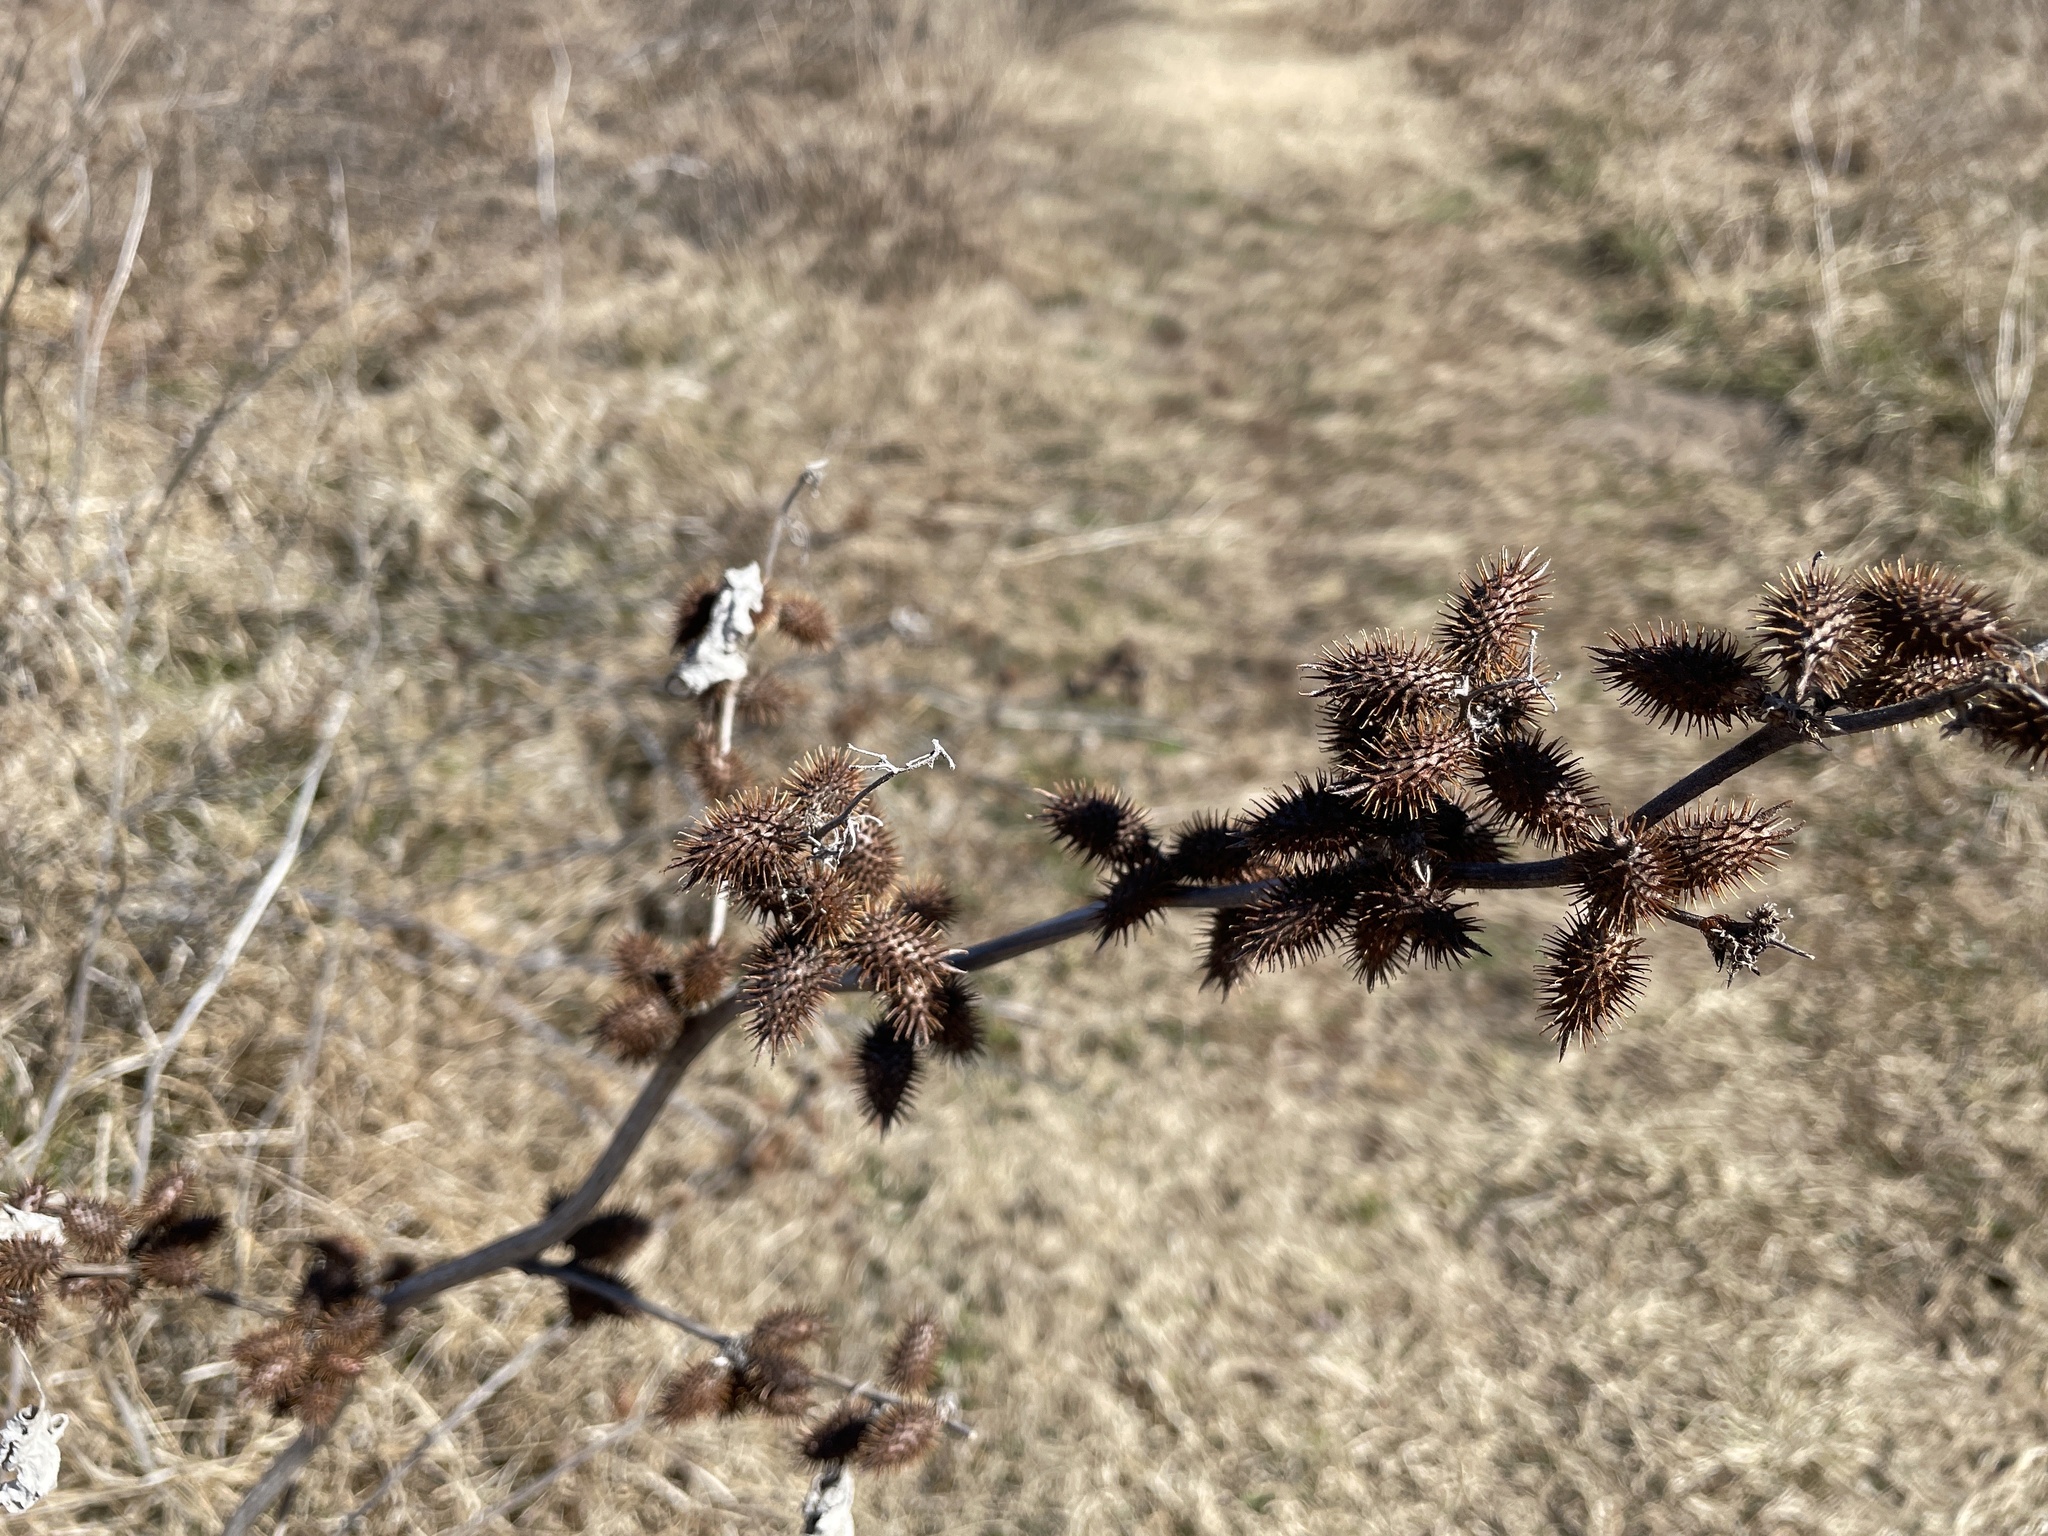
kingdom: Plantae
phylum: Tracheophyta
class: Magnoliopsida
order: Asterales
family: Asteraceae
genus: Xanthium
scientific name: Xanthium strumarium
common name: Rough cocklebur
